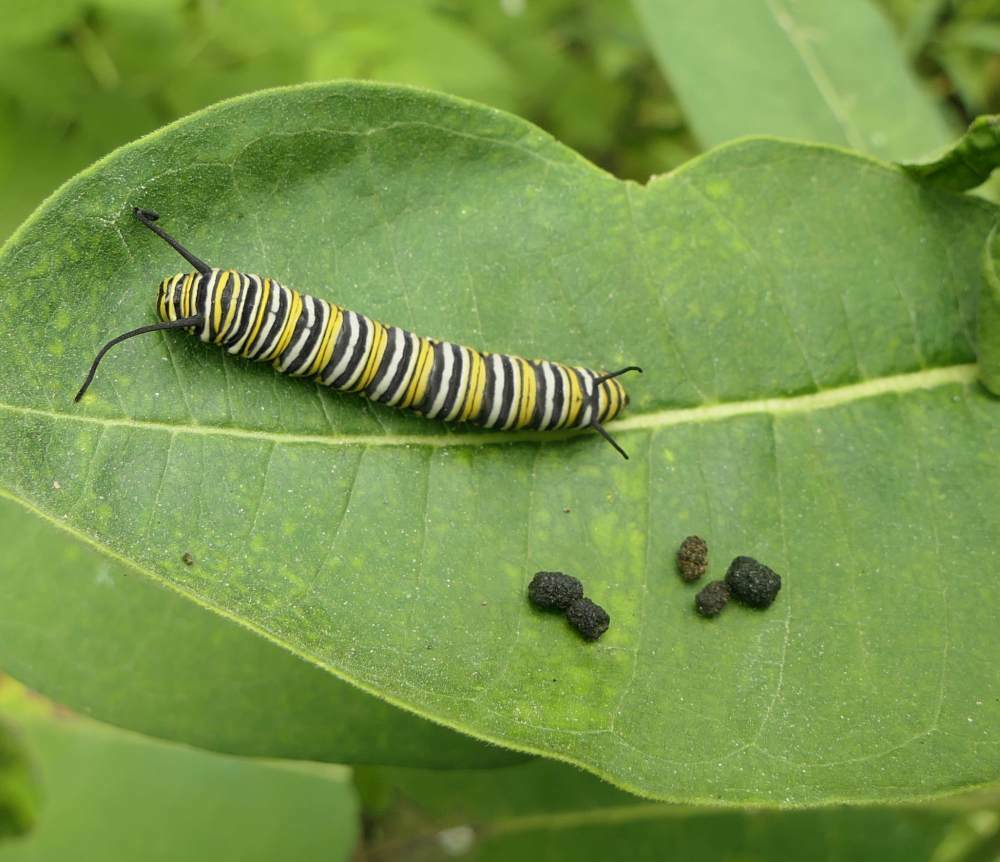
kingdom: Animalia
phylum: Arthropoda
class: Insecta
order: Lepidoptera
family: Nymphalidae
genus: Danaus
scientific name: Danaus plexippus
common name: Monarch
